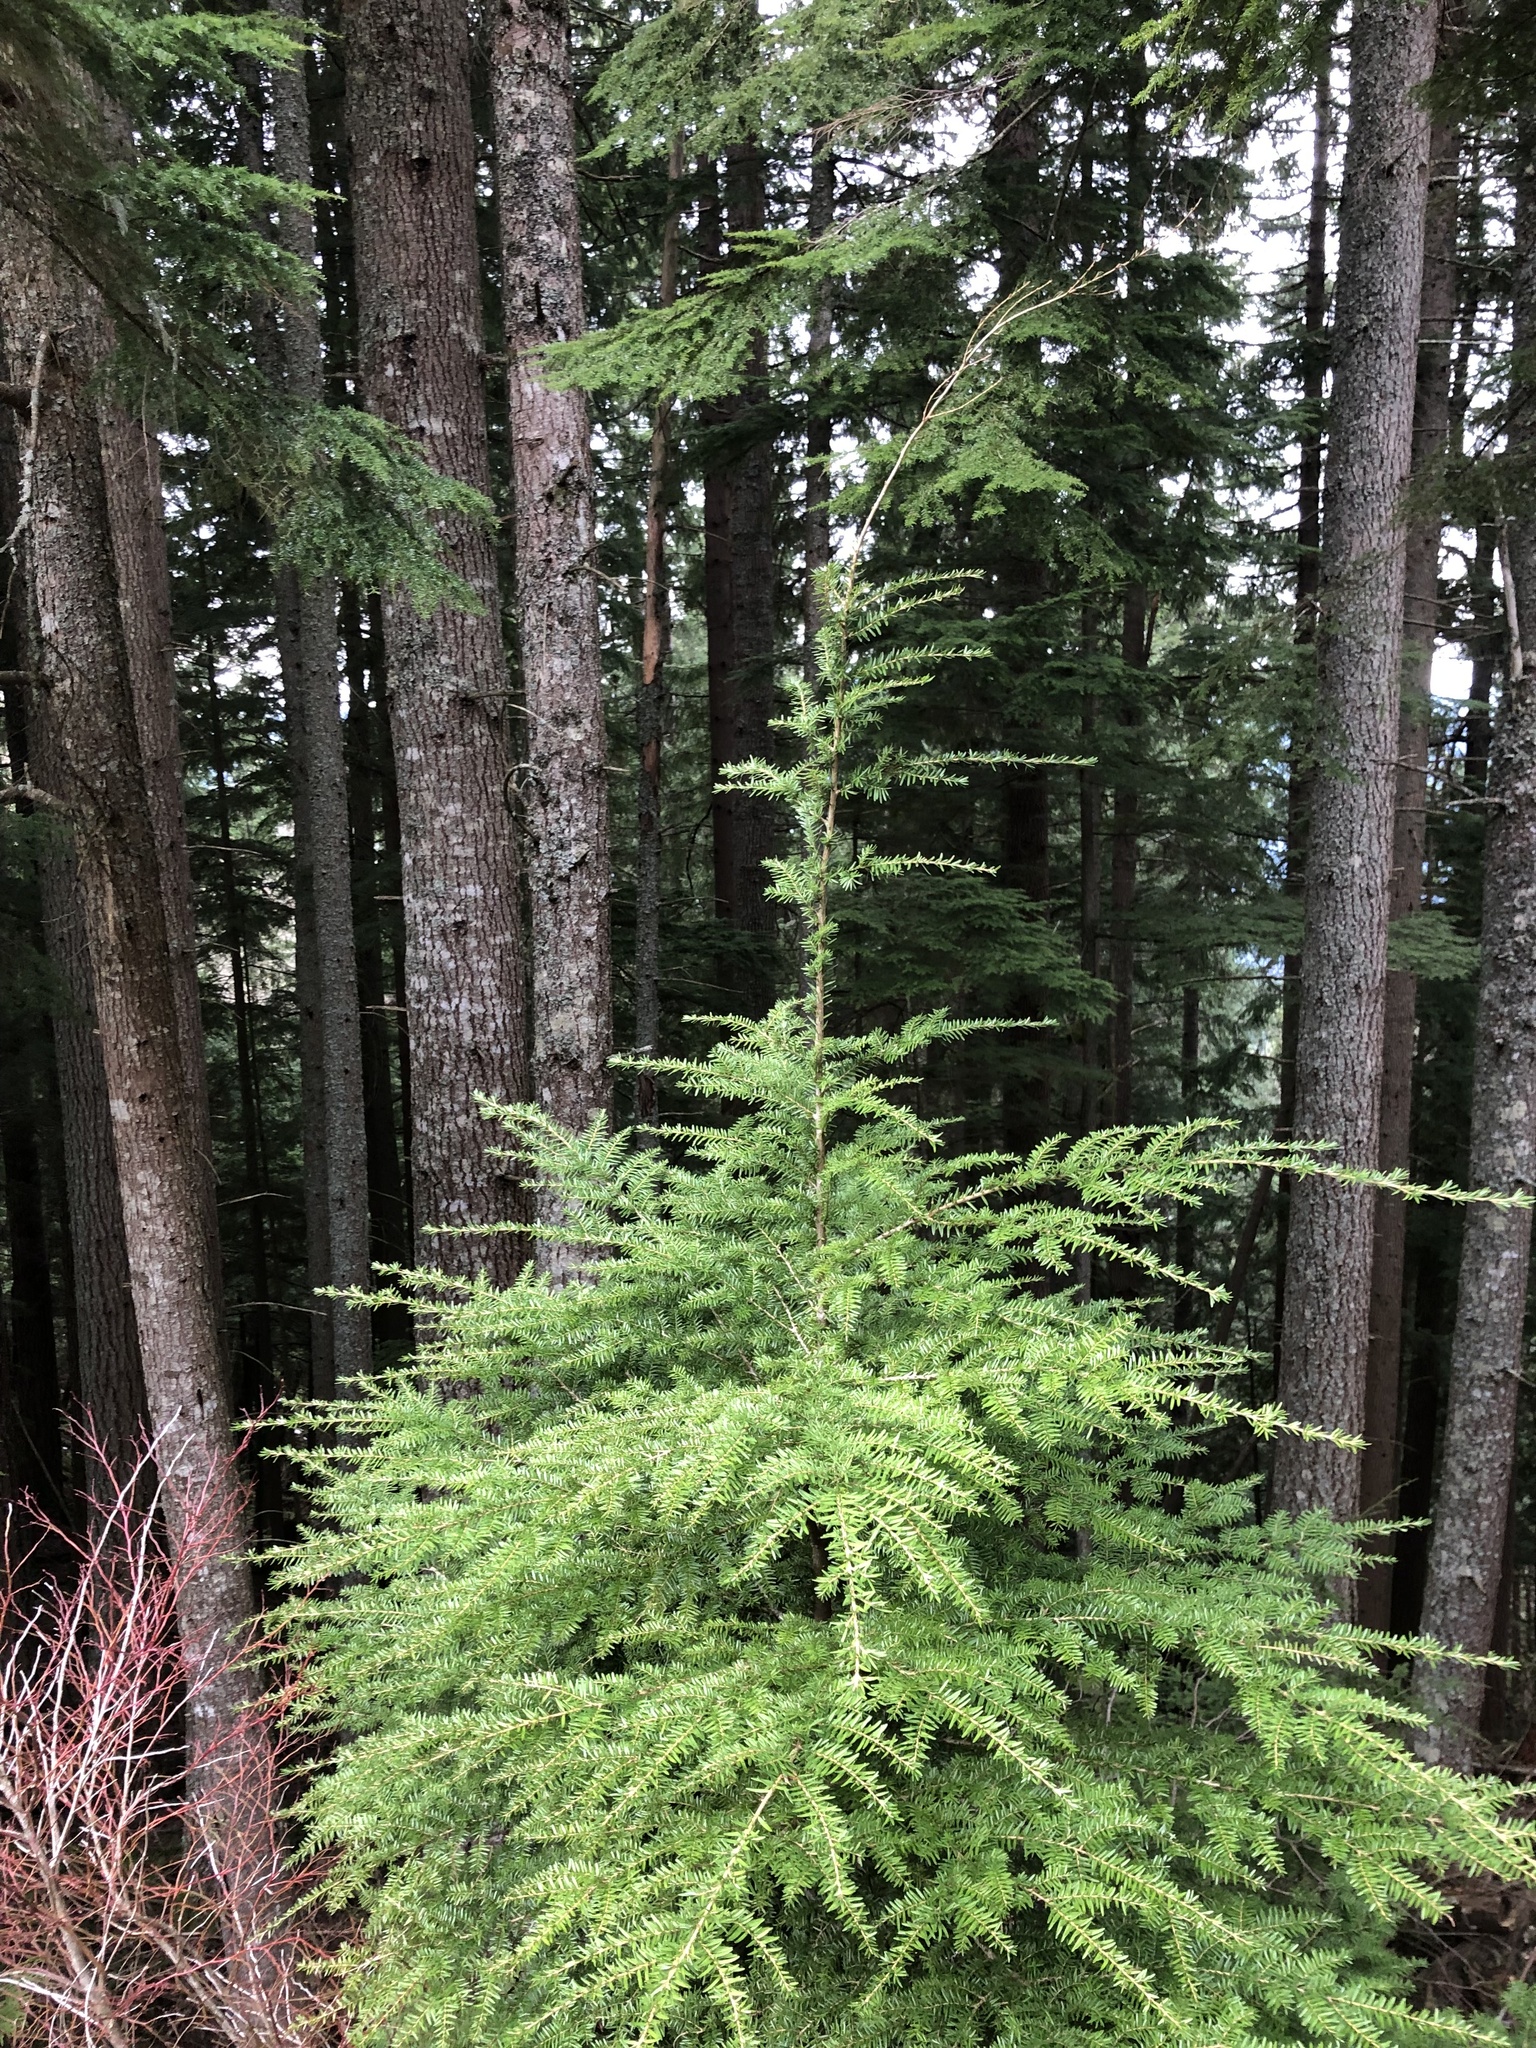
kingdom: Plantae
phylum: Tracheophyta
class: Pinopsida
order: Pinales
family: Pinaceae
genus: Tsuga
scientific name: Tsuga heterophylla
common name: Western hemlock
